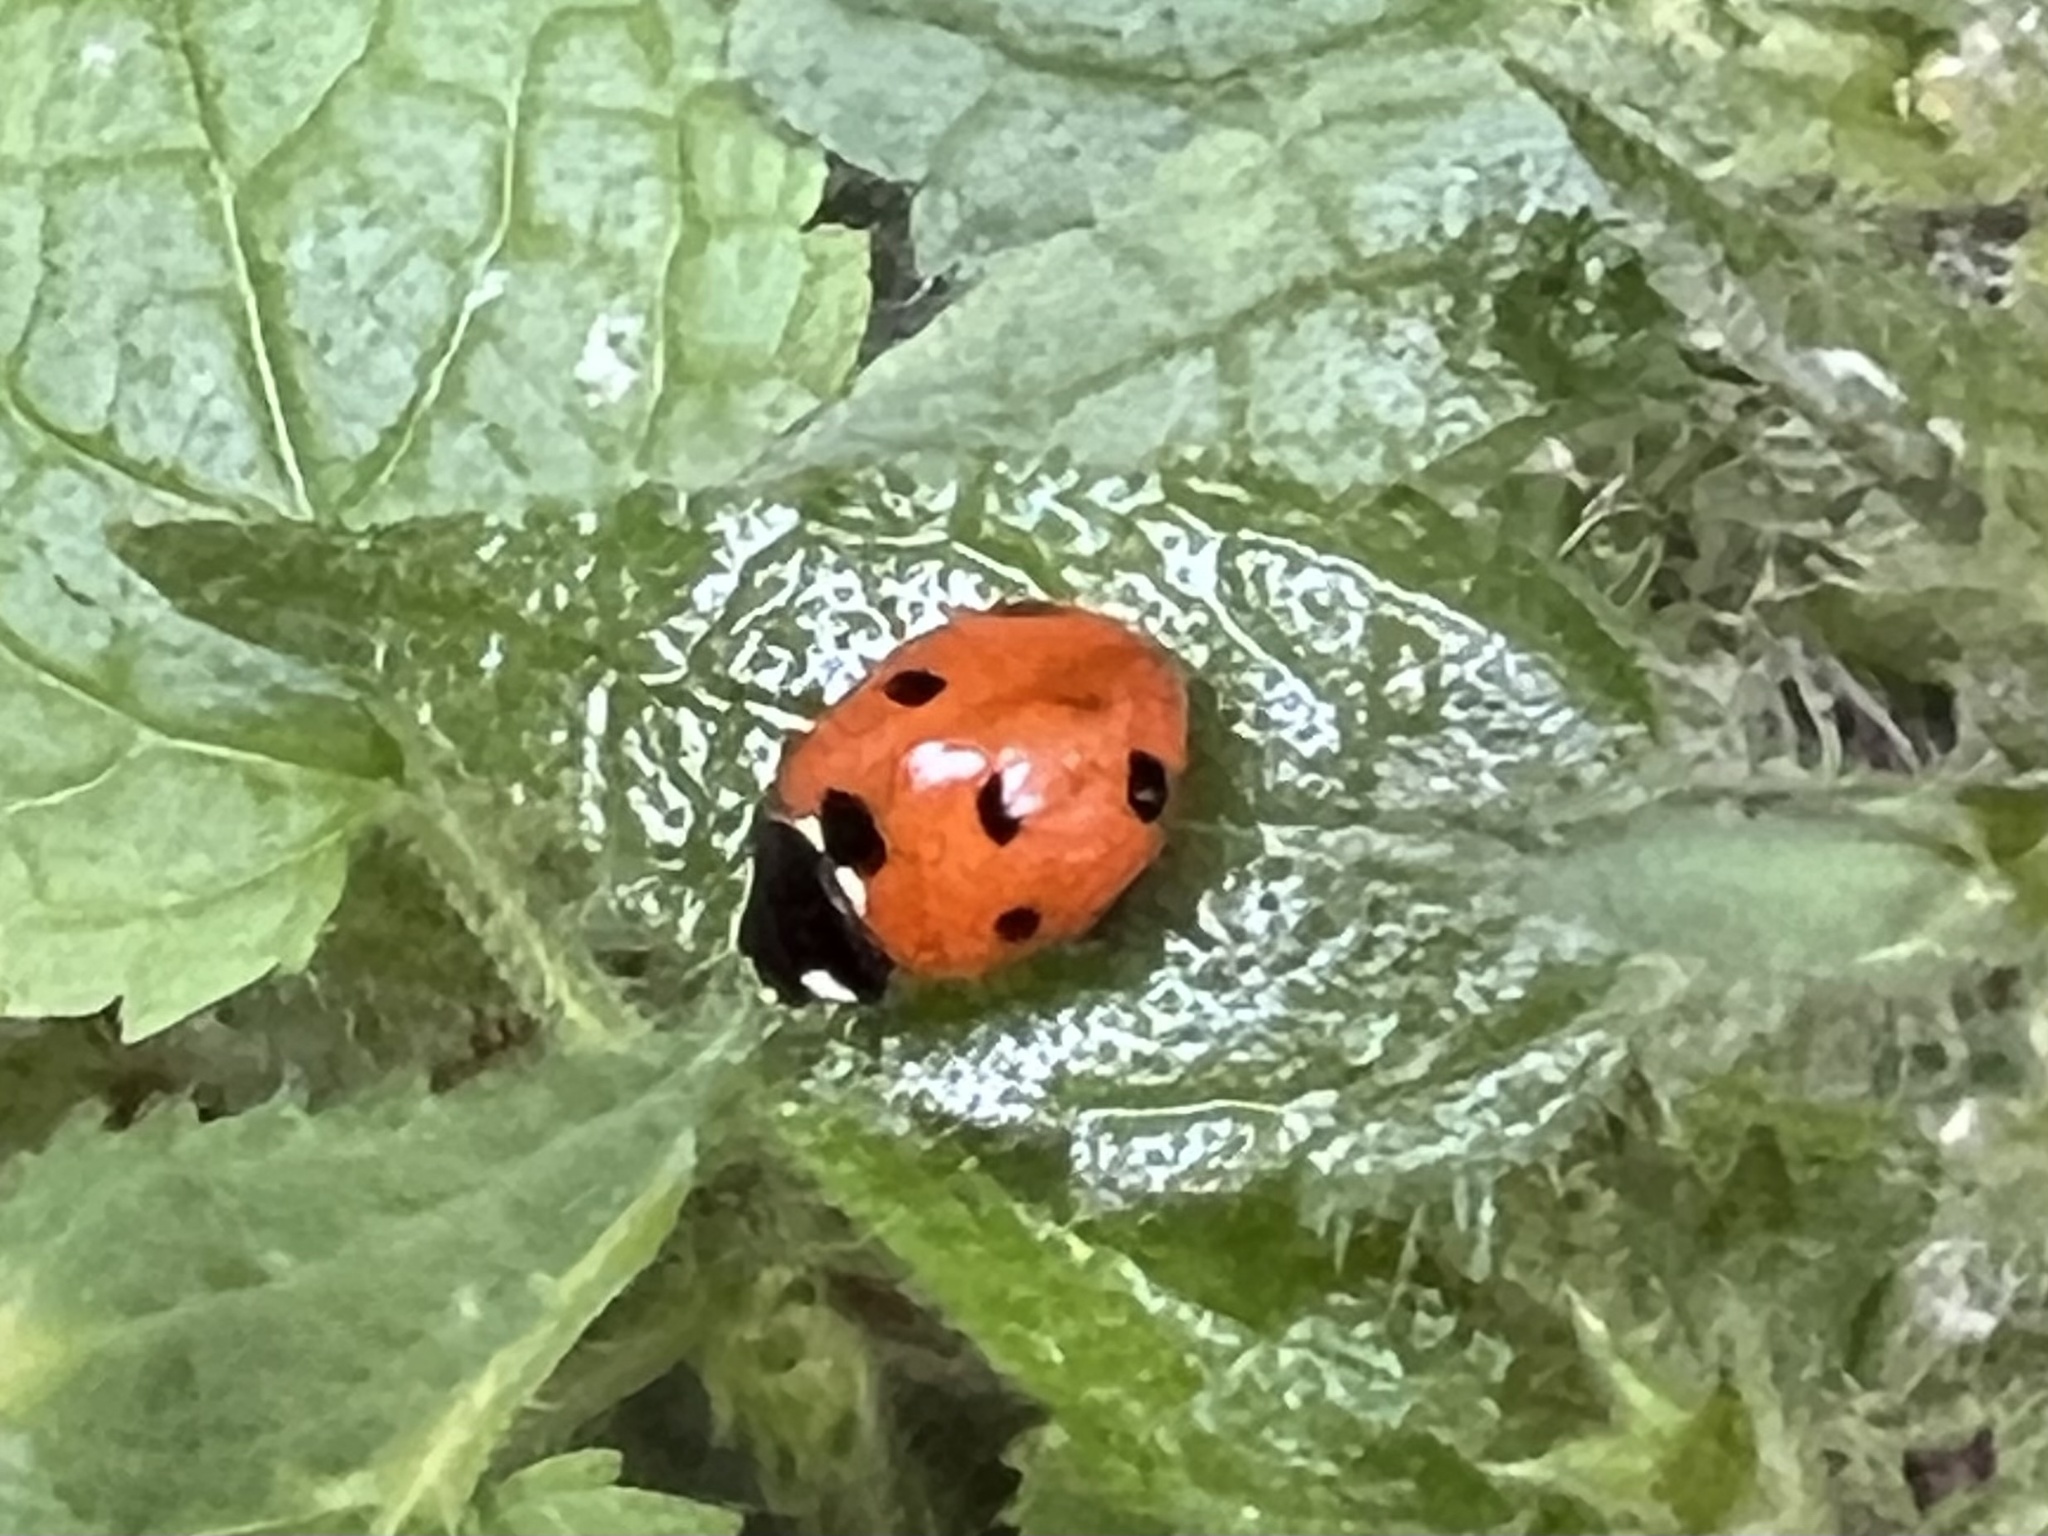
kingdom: Animalia
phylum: Arthropoda
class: Insecta
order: Coleoptera
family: Coccinellidae
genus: Coccinella
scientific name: Coccinella septempunctata
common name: Sevenspotted lady beetle
